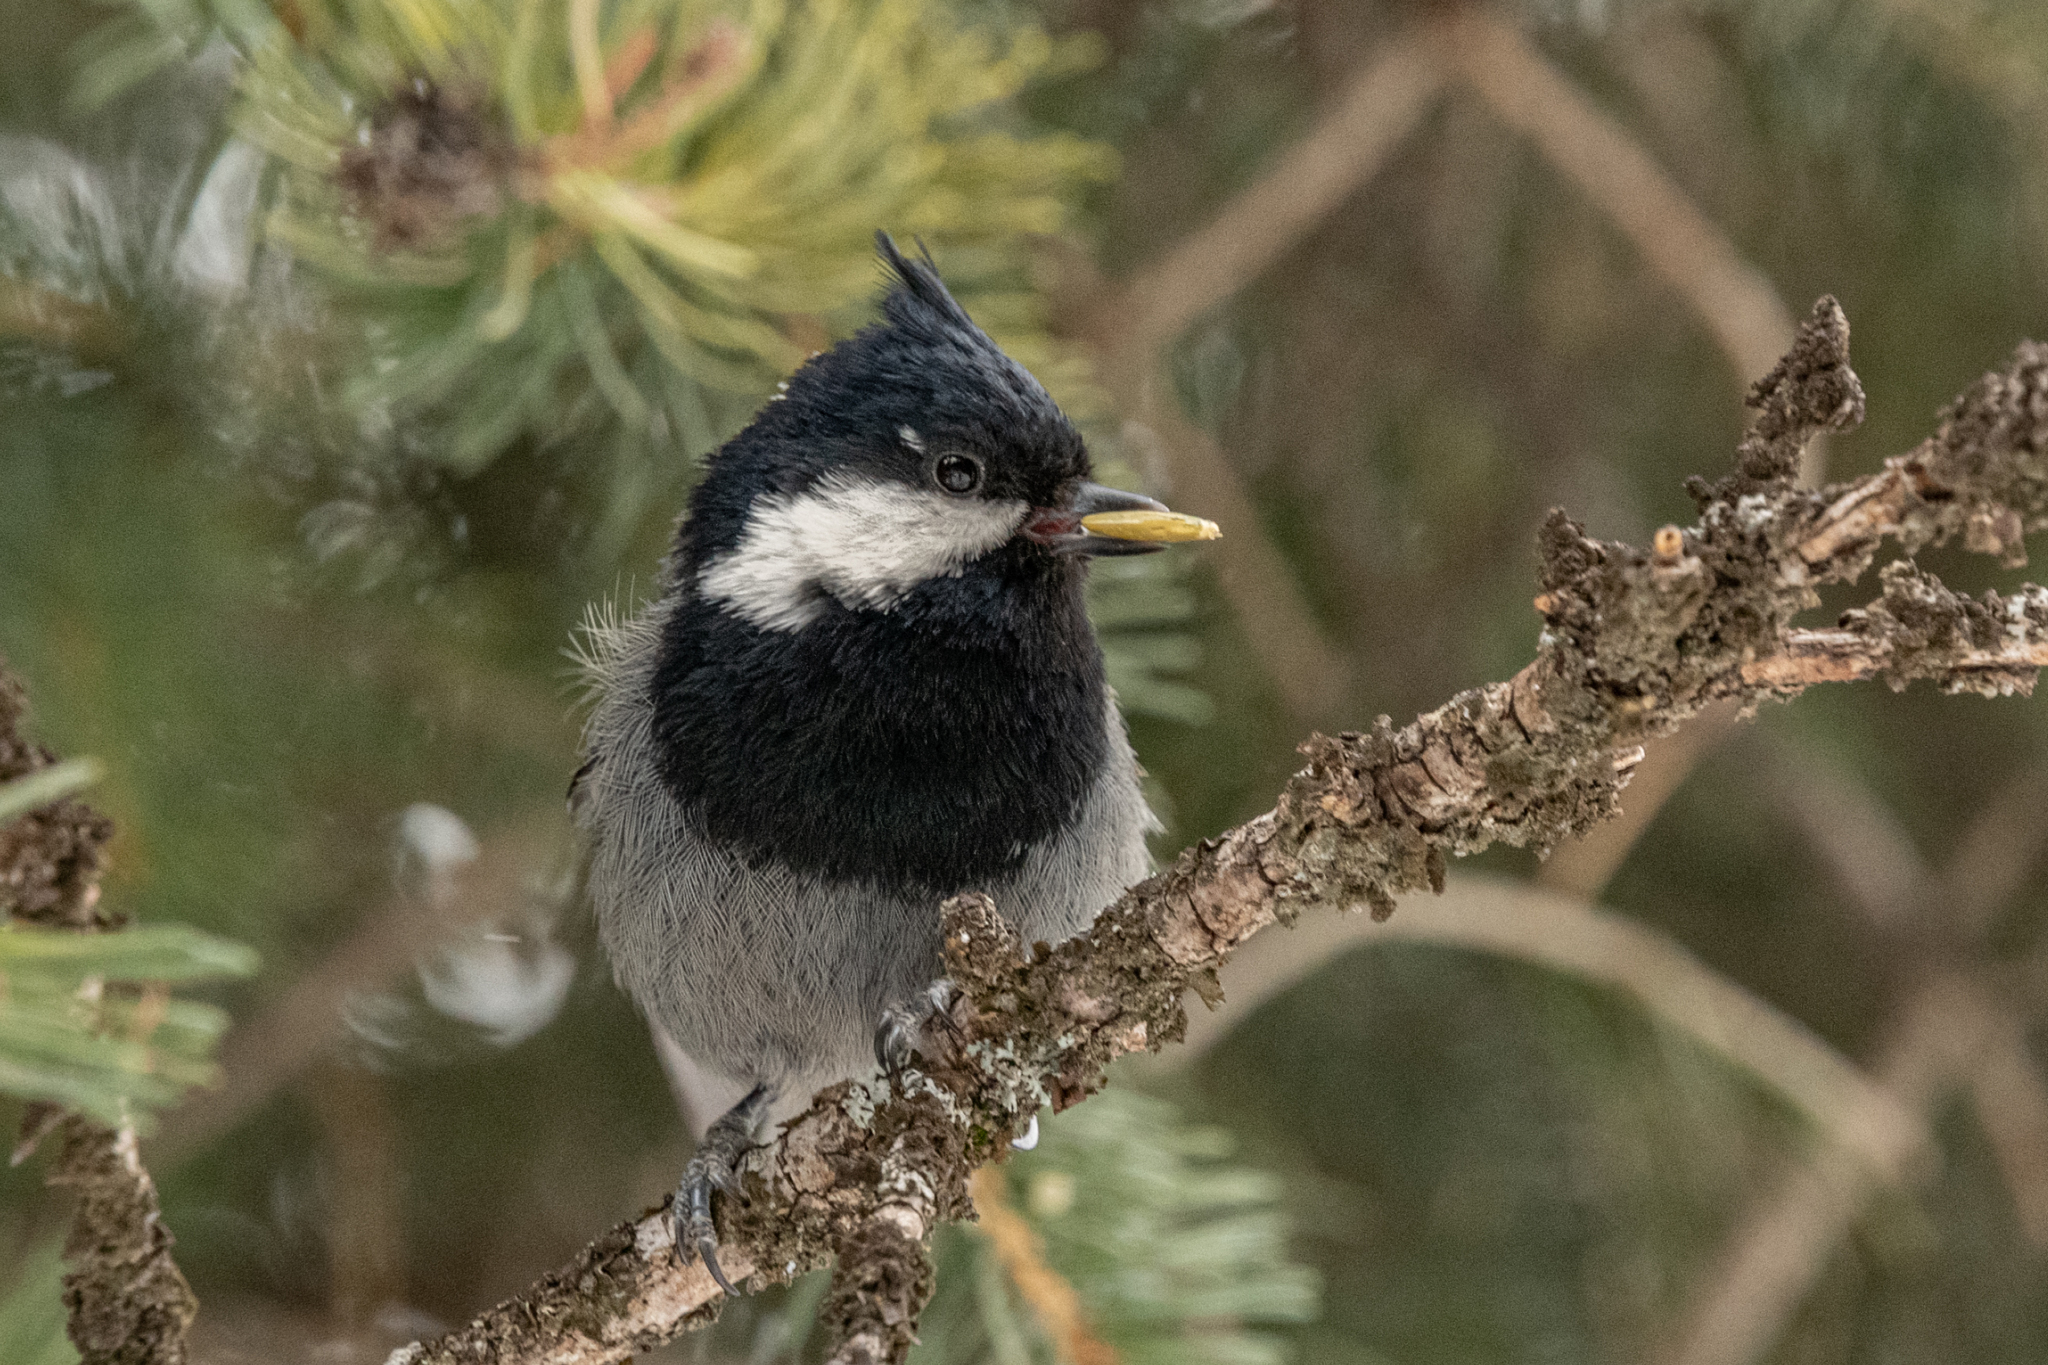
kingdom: Animalia
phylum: Chordata
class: Aves
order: Passeriformes
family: Paridae
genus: Periparus
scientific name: Periparus rufonuchalis
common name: Rufous-naped tit
